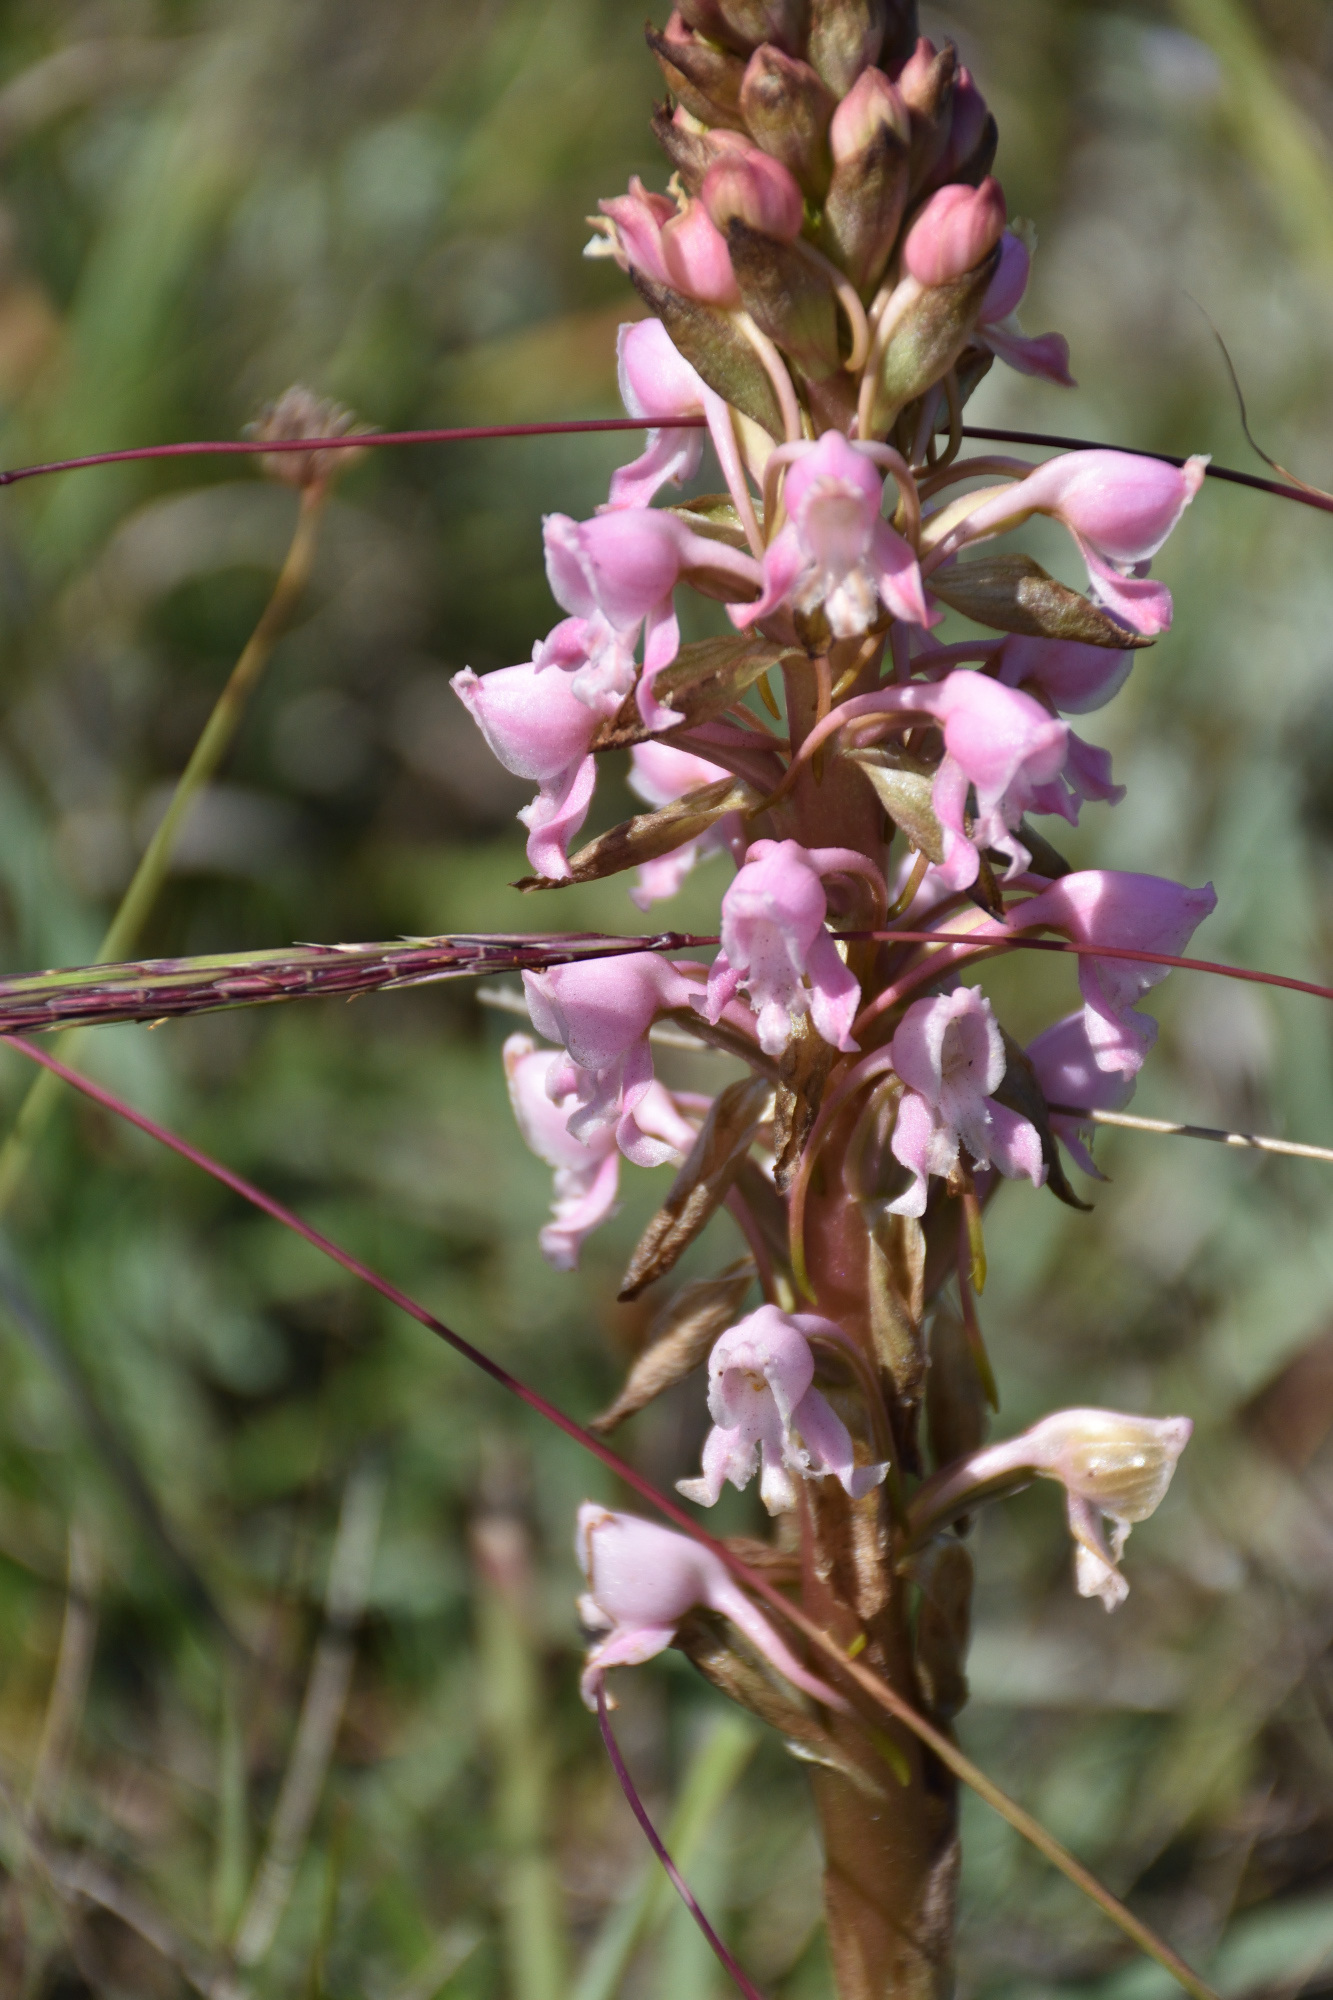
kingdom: Plantae
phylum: Tracheophyta
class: Liliopsida
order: Asparagales
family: Orchidaceae
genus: Satyrium
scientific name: Satyrium membranaceum
